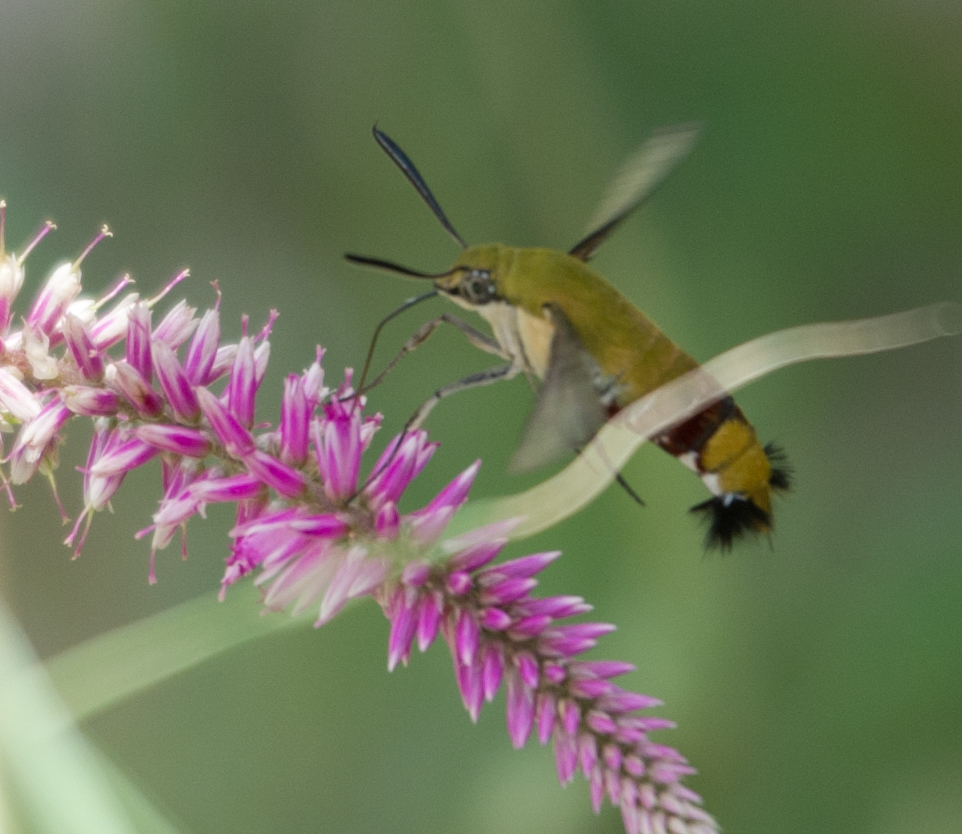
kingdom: Animalia
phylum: Arthropoda
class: Insecta
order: Lepidoptera
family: Sphingidae
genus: Cephonodes
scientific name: Cephonodes hylas
